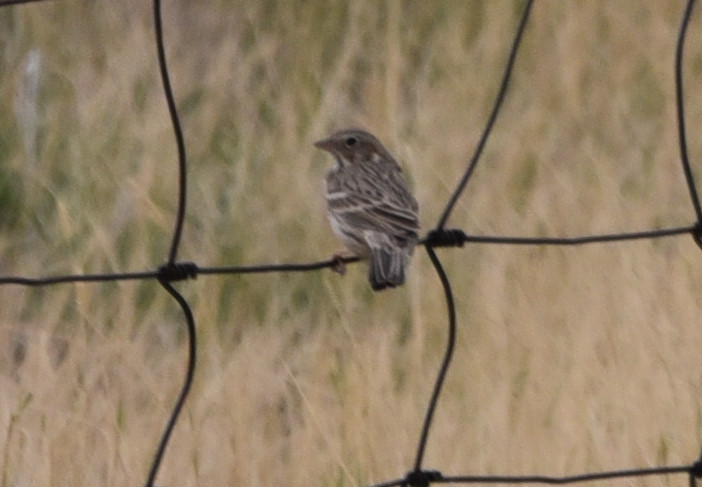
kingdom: Animalia
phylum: Chordata
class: Aves
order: Passeriformes
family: Passerellidae
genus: Pooecetes
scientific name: Pooecetes gramineus
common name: Vesper sparrow
